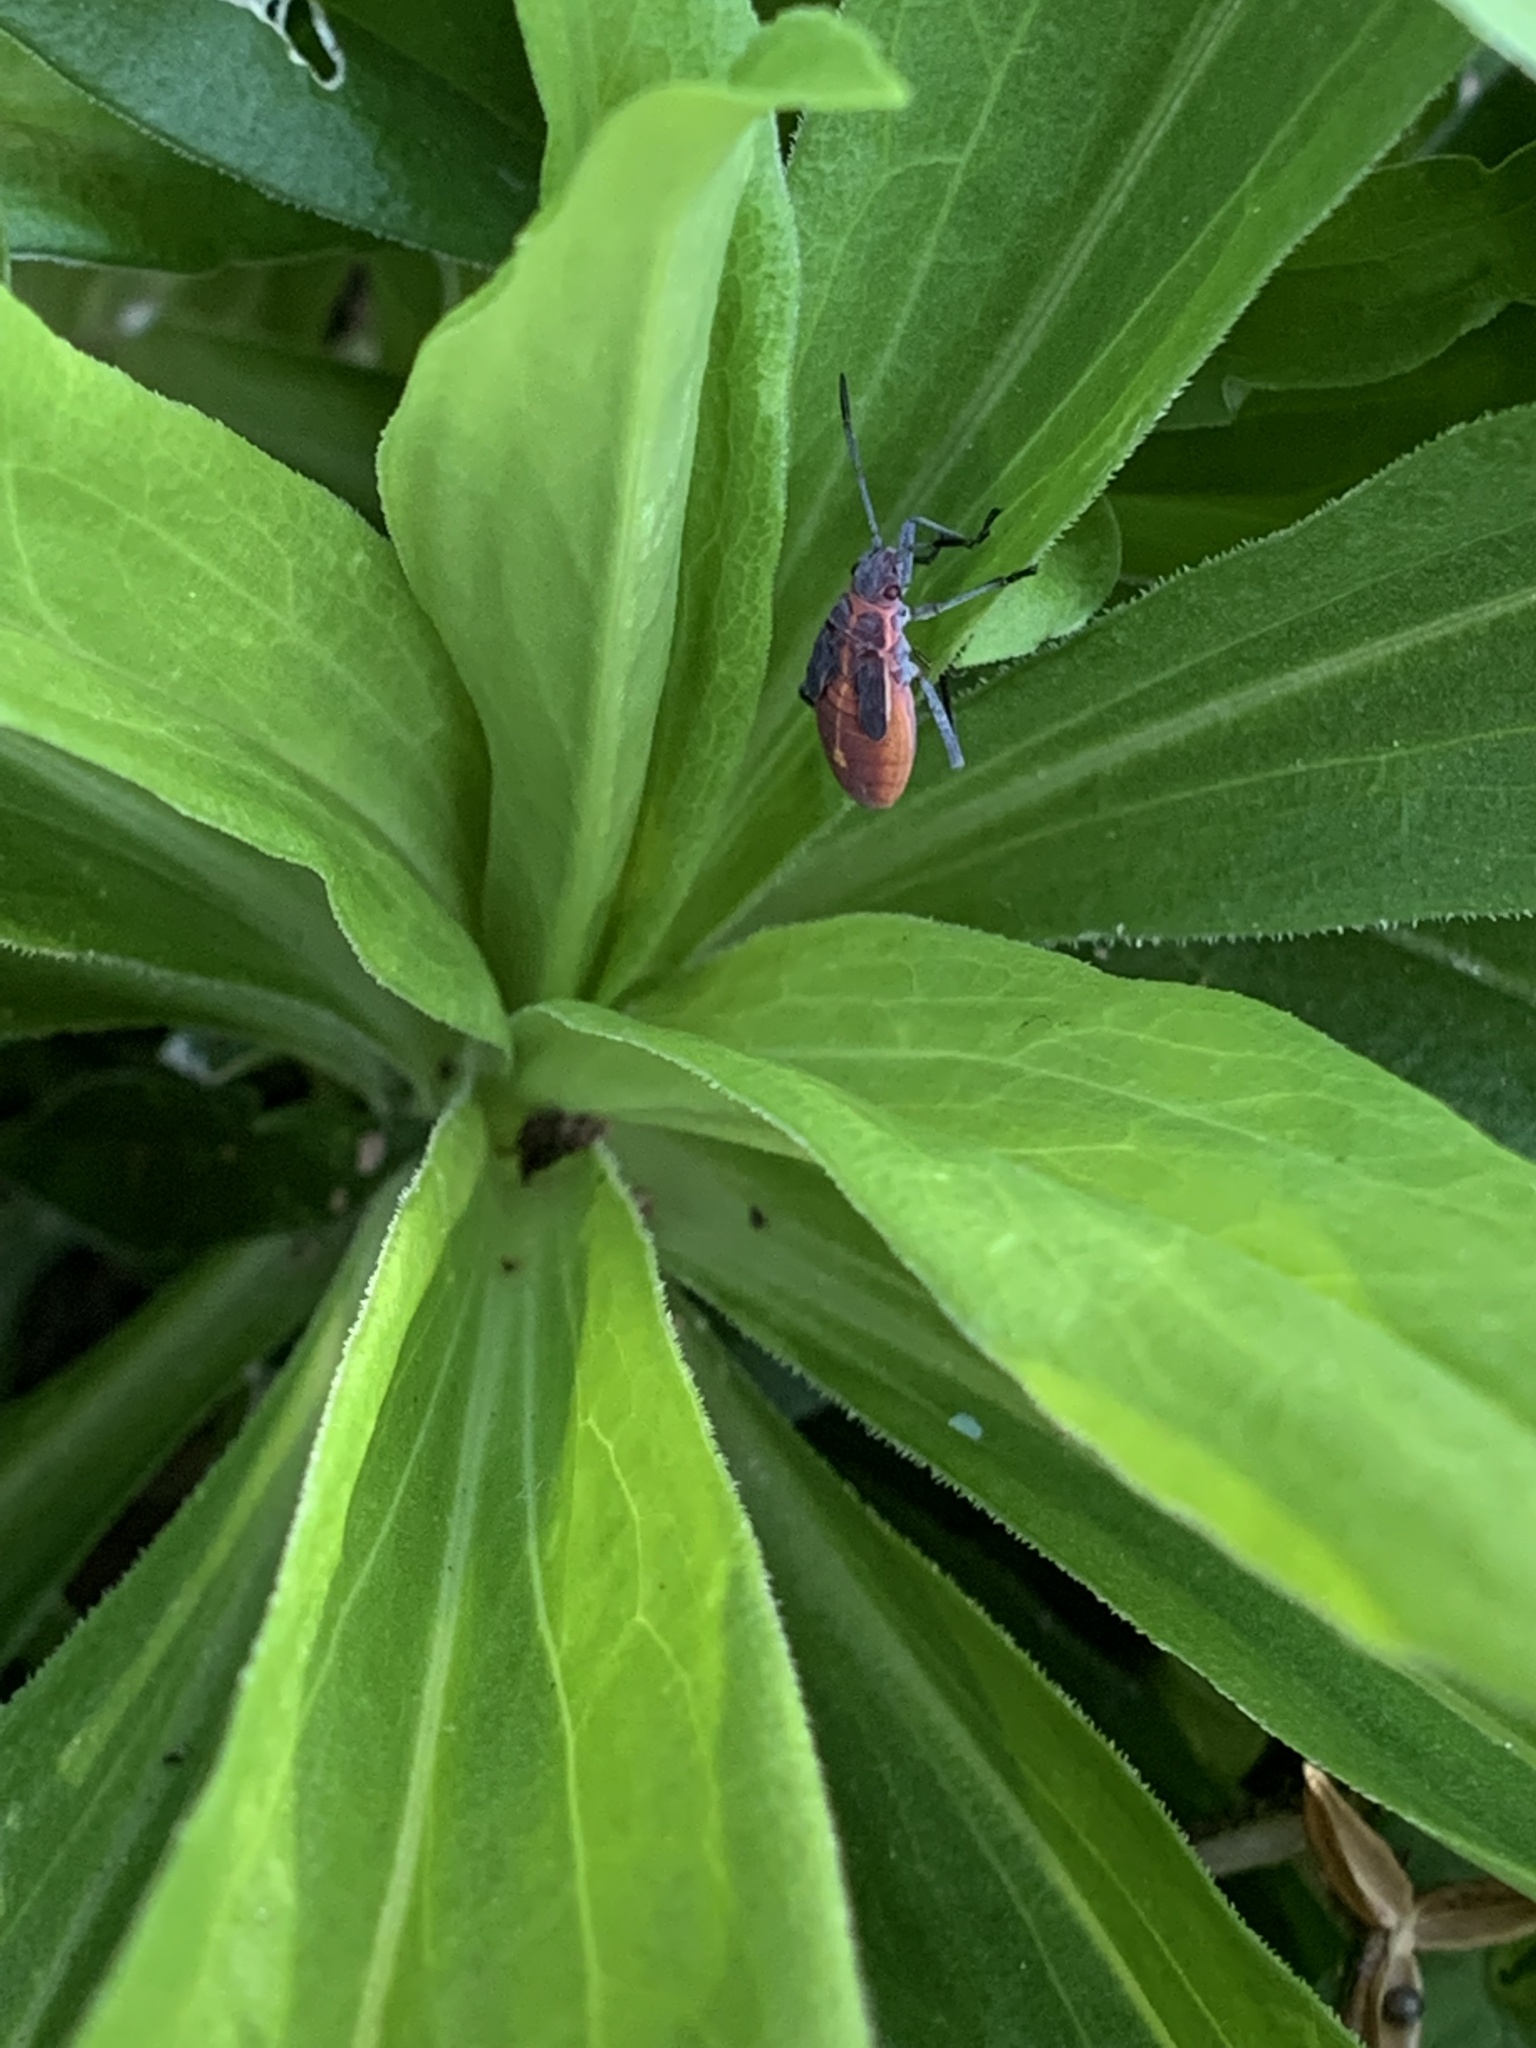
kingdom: Animalia
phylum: Arthropoda
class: Insecta
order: Hemiptera
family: Rhopalidae
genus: Boisea
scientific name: Boisea trivittata
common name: Boxelder bug
